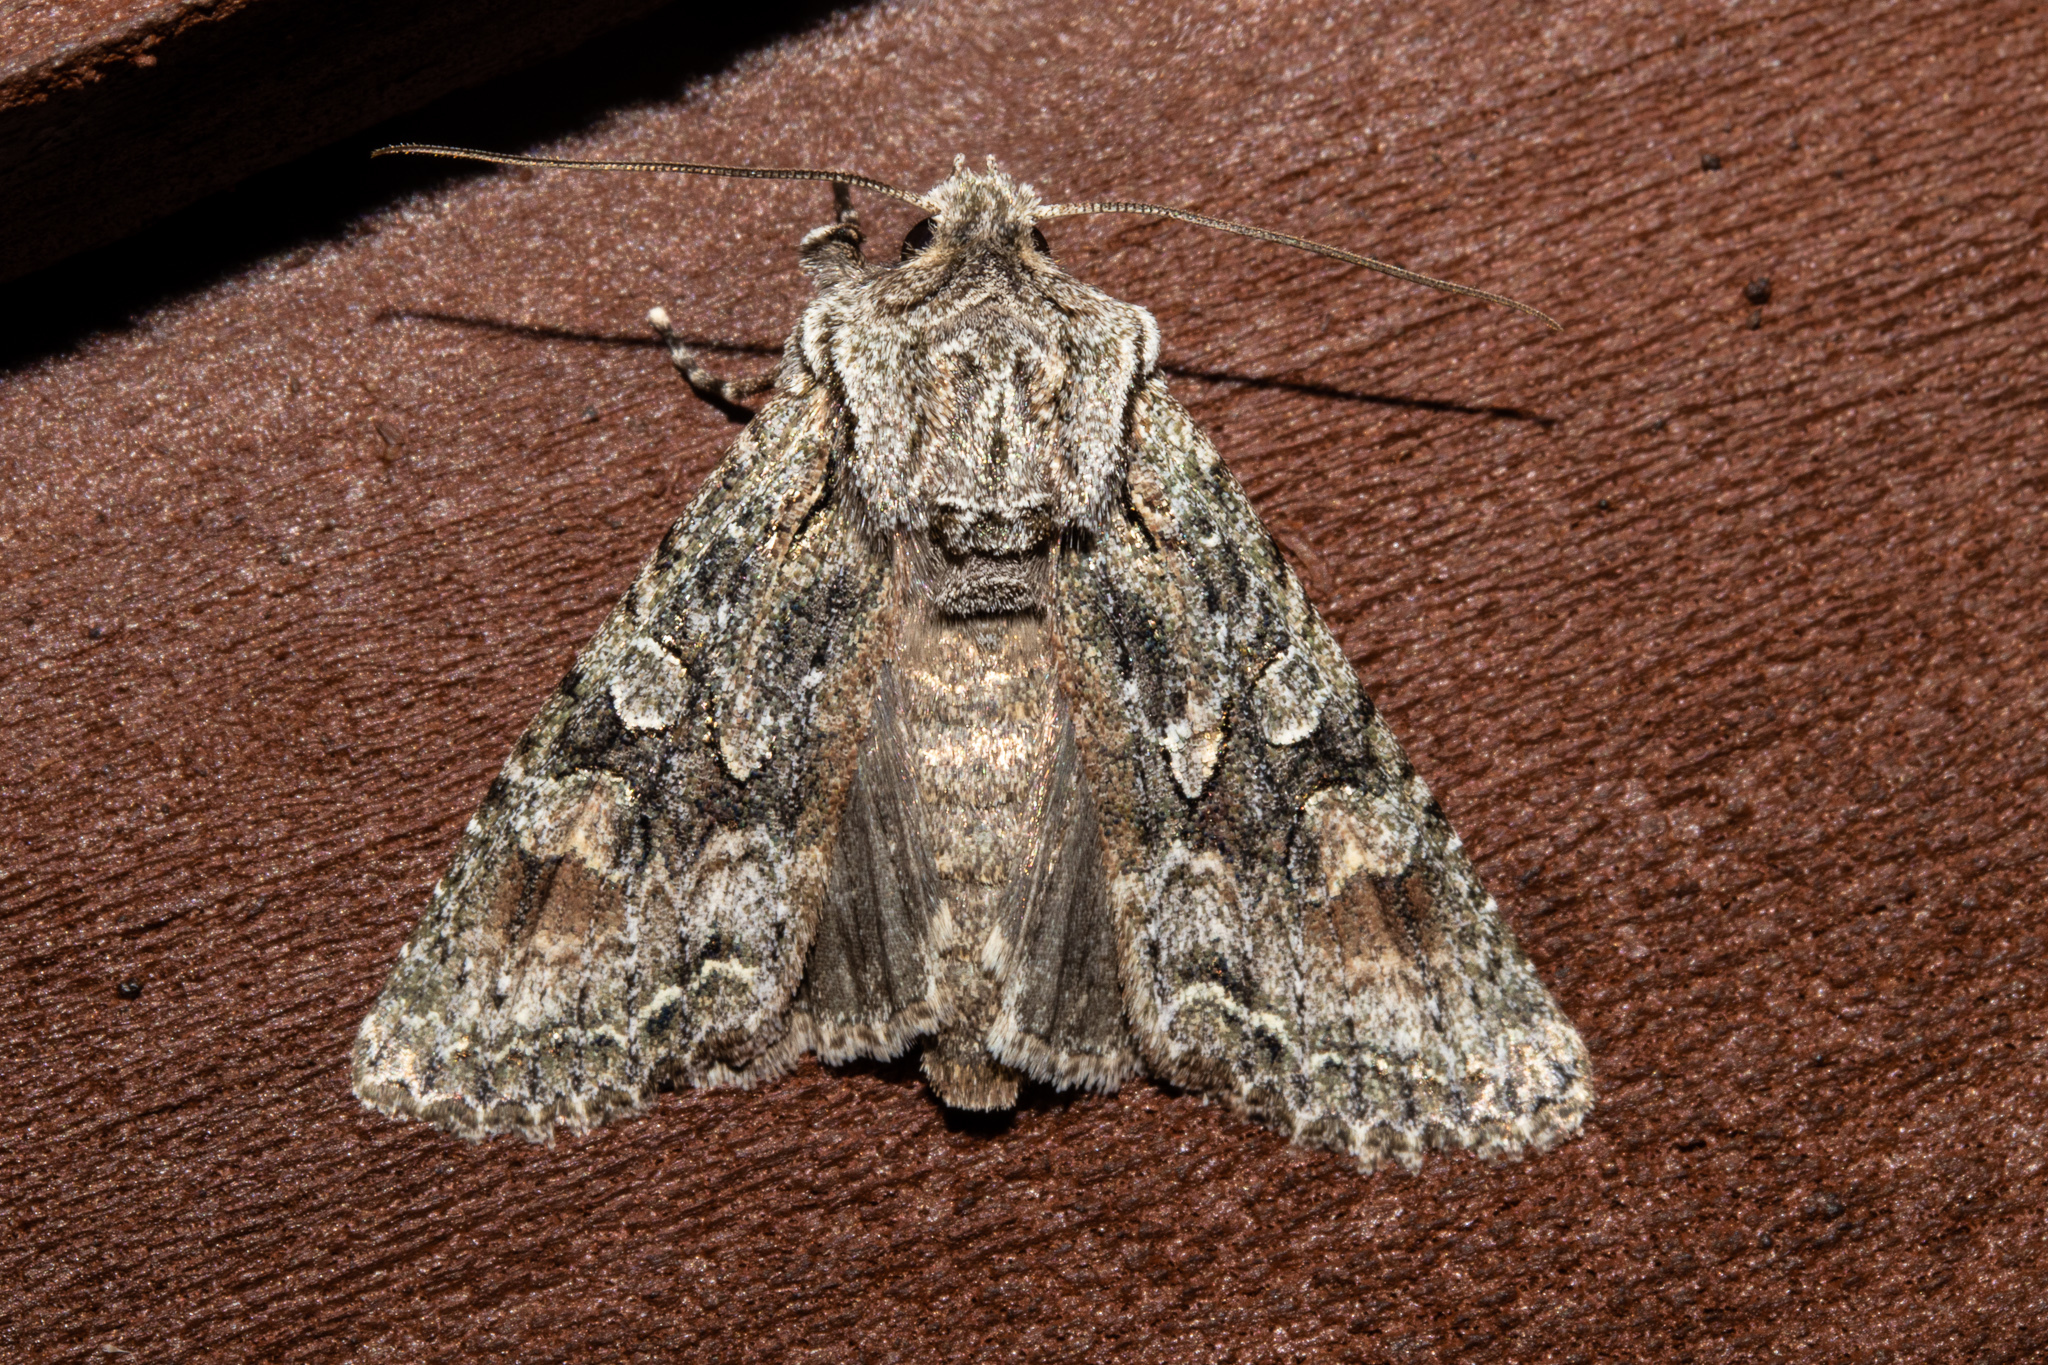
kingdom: Animalia
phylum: Arthropoda
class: Insecta
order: Lepidoptera
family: Noctuidae
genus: Ichneutica
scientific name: Ichneutica mutans
